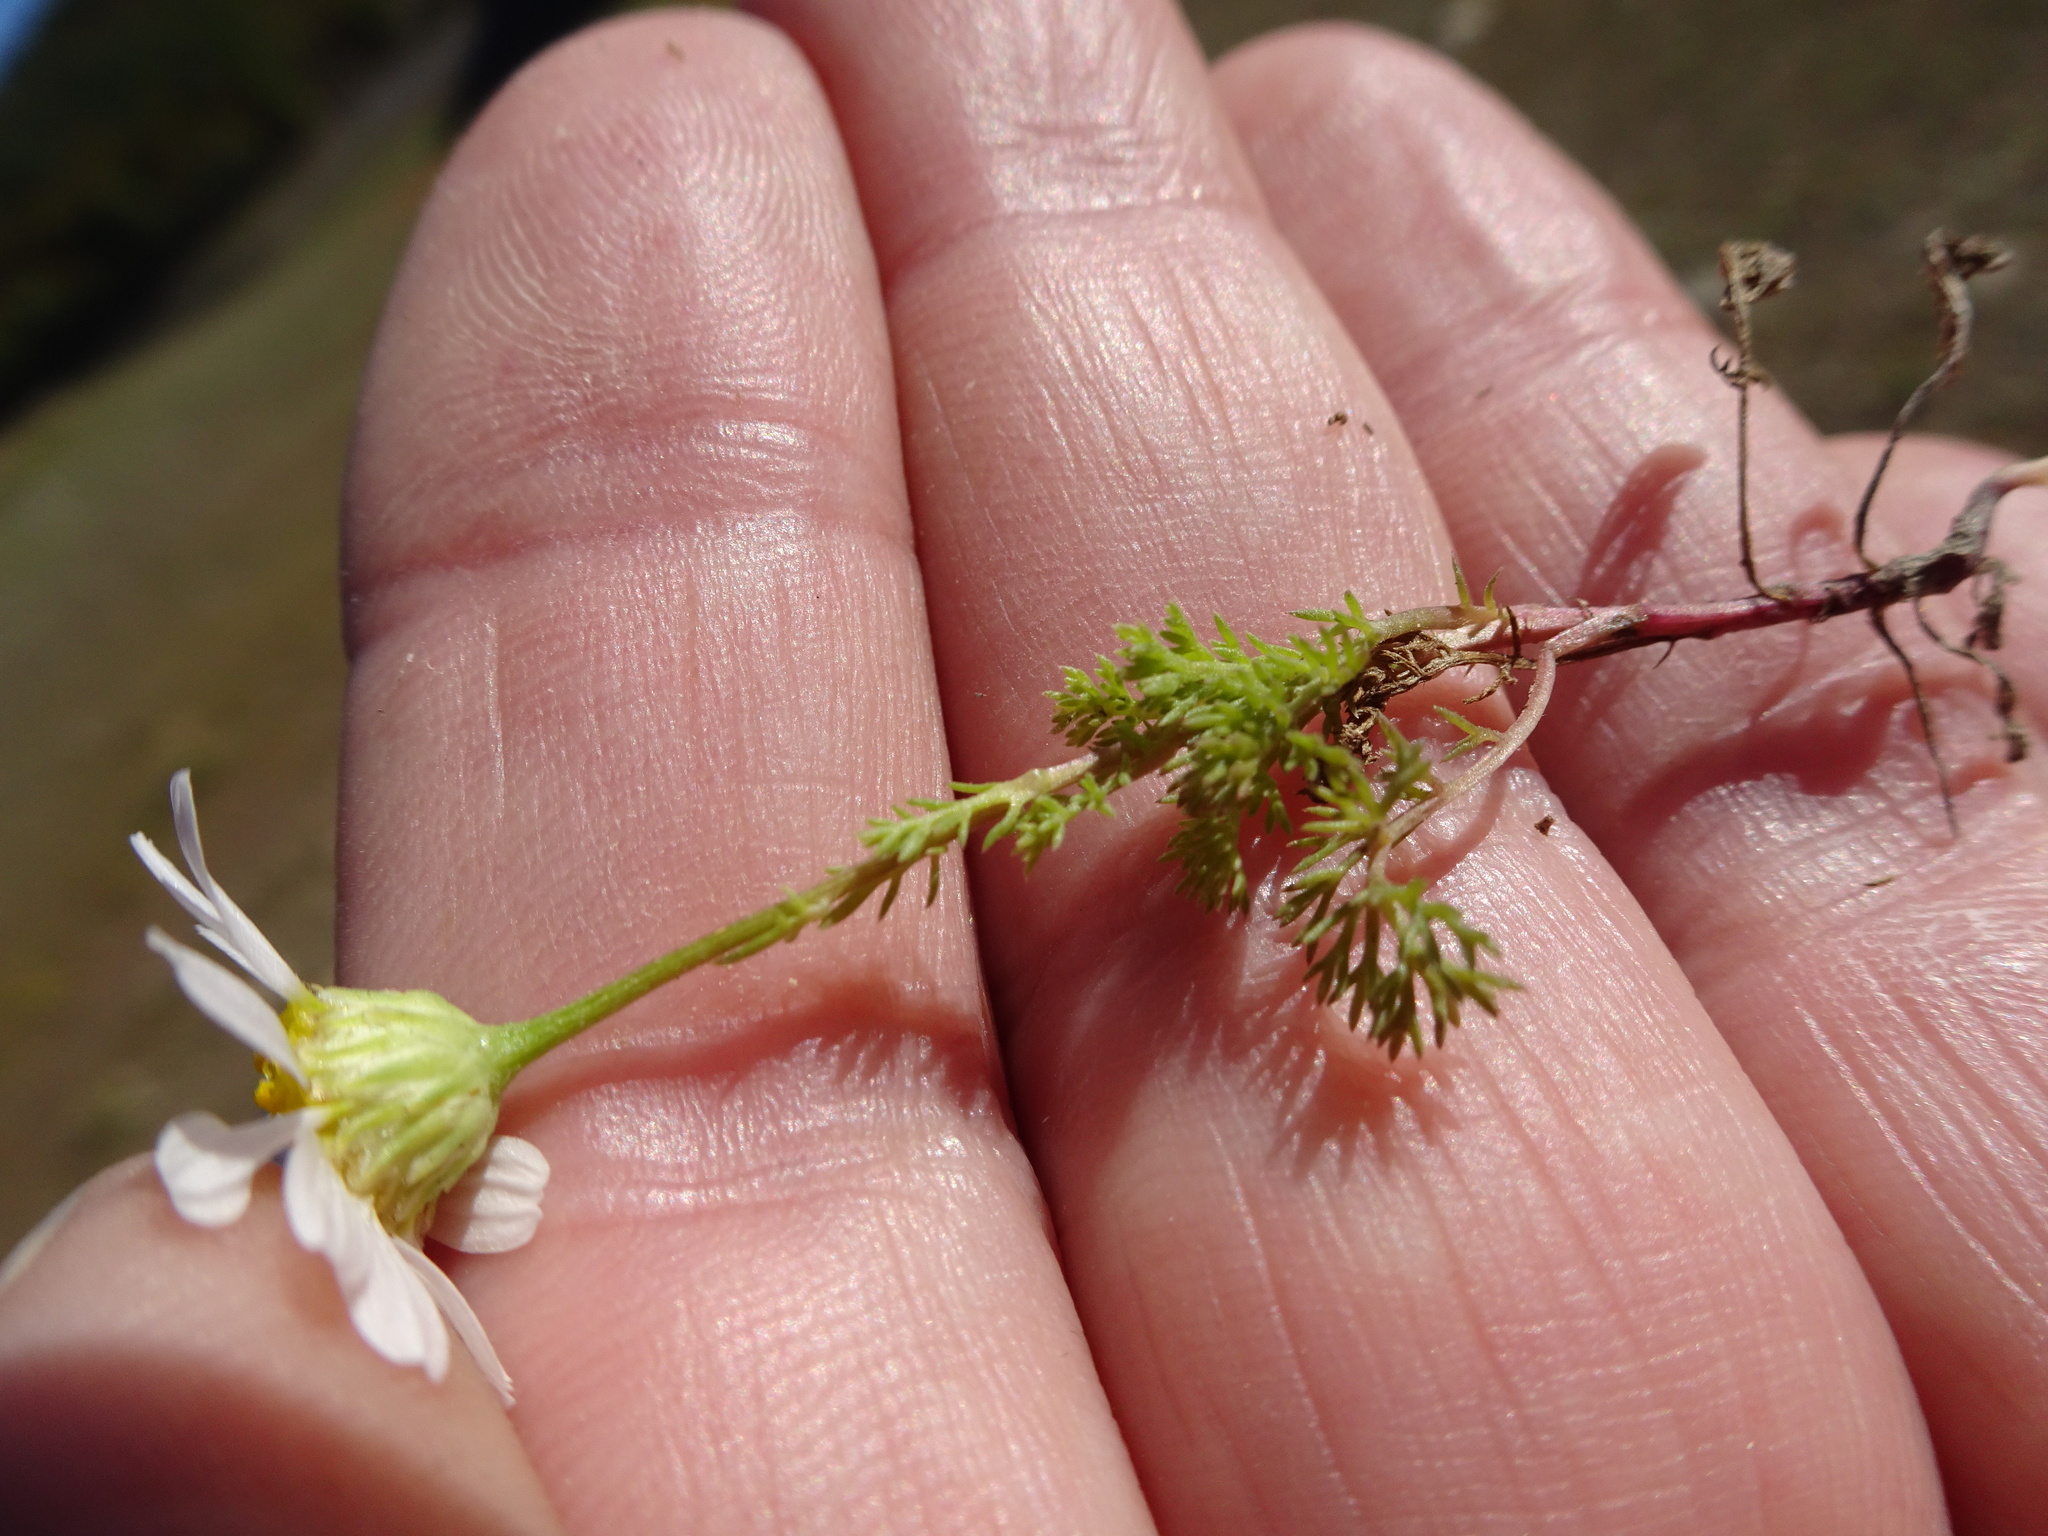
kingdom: Plantae
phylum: Tracheophyta
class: Magnoliopsida
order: Asterales
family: Asteraceae
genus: Tripleurospermum
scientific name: Tripleurospermum inodorum
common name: Scentless mayweed
